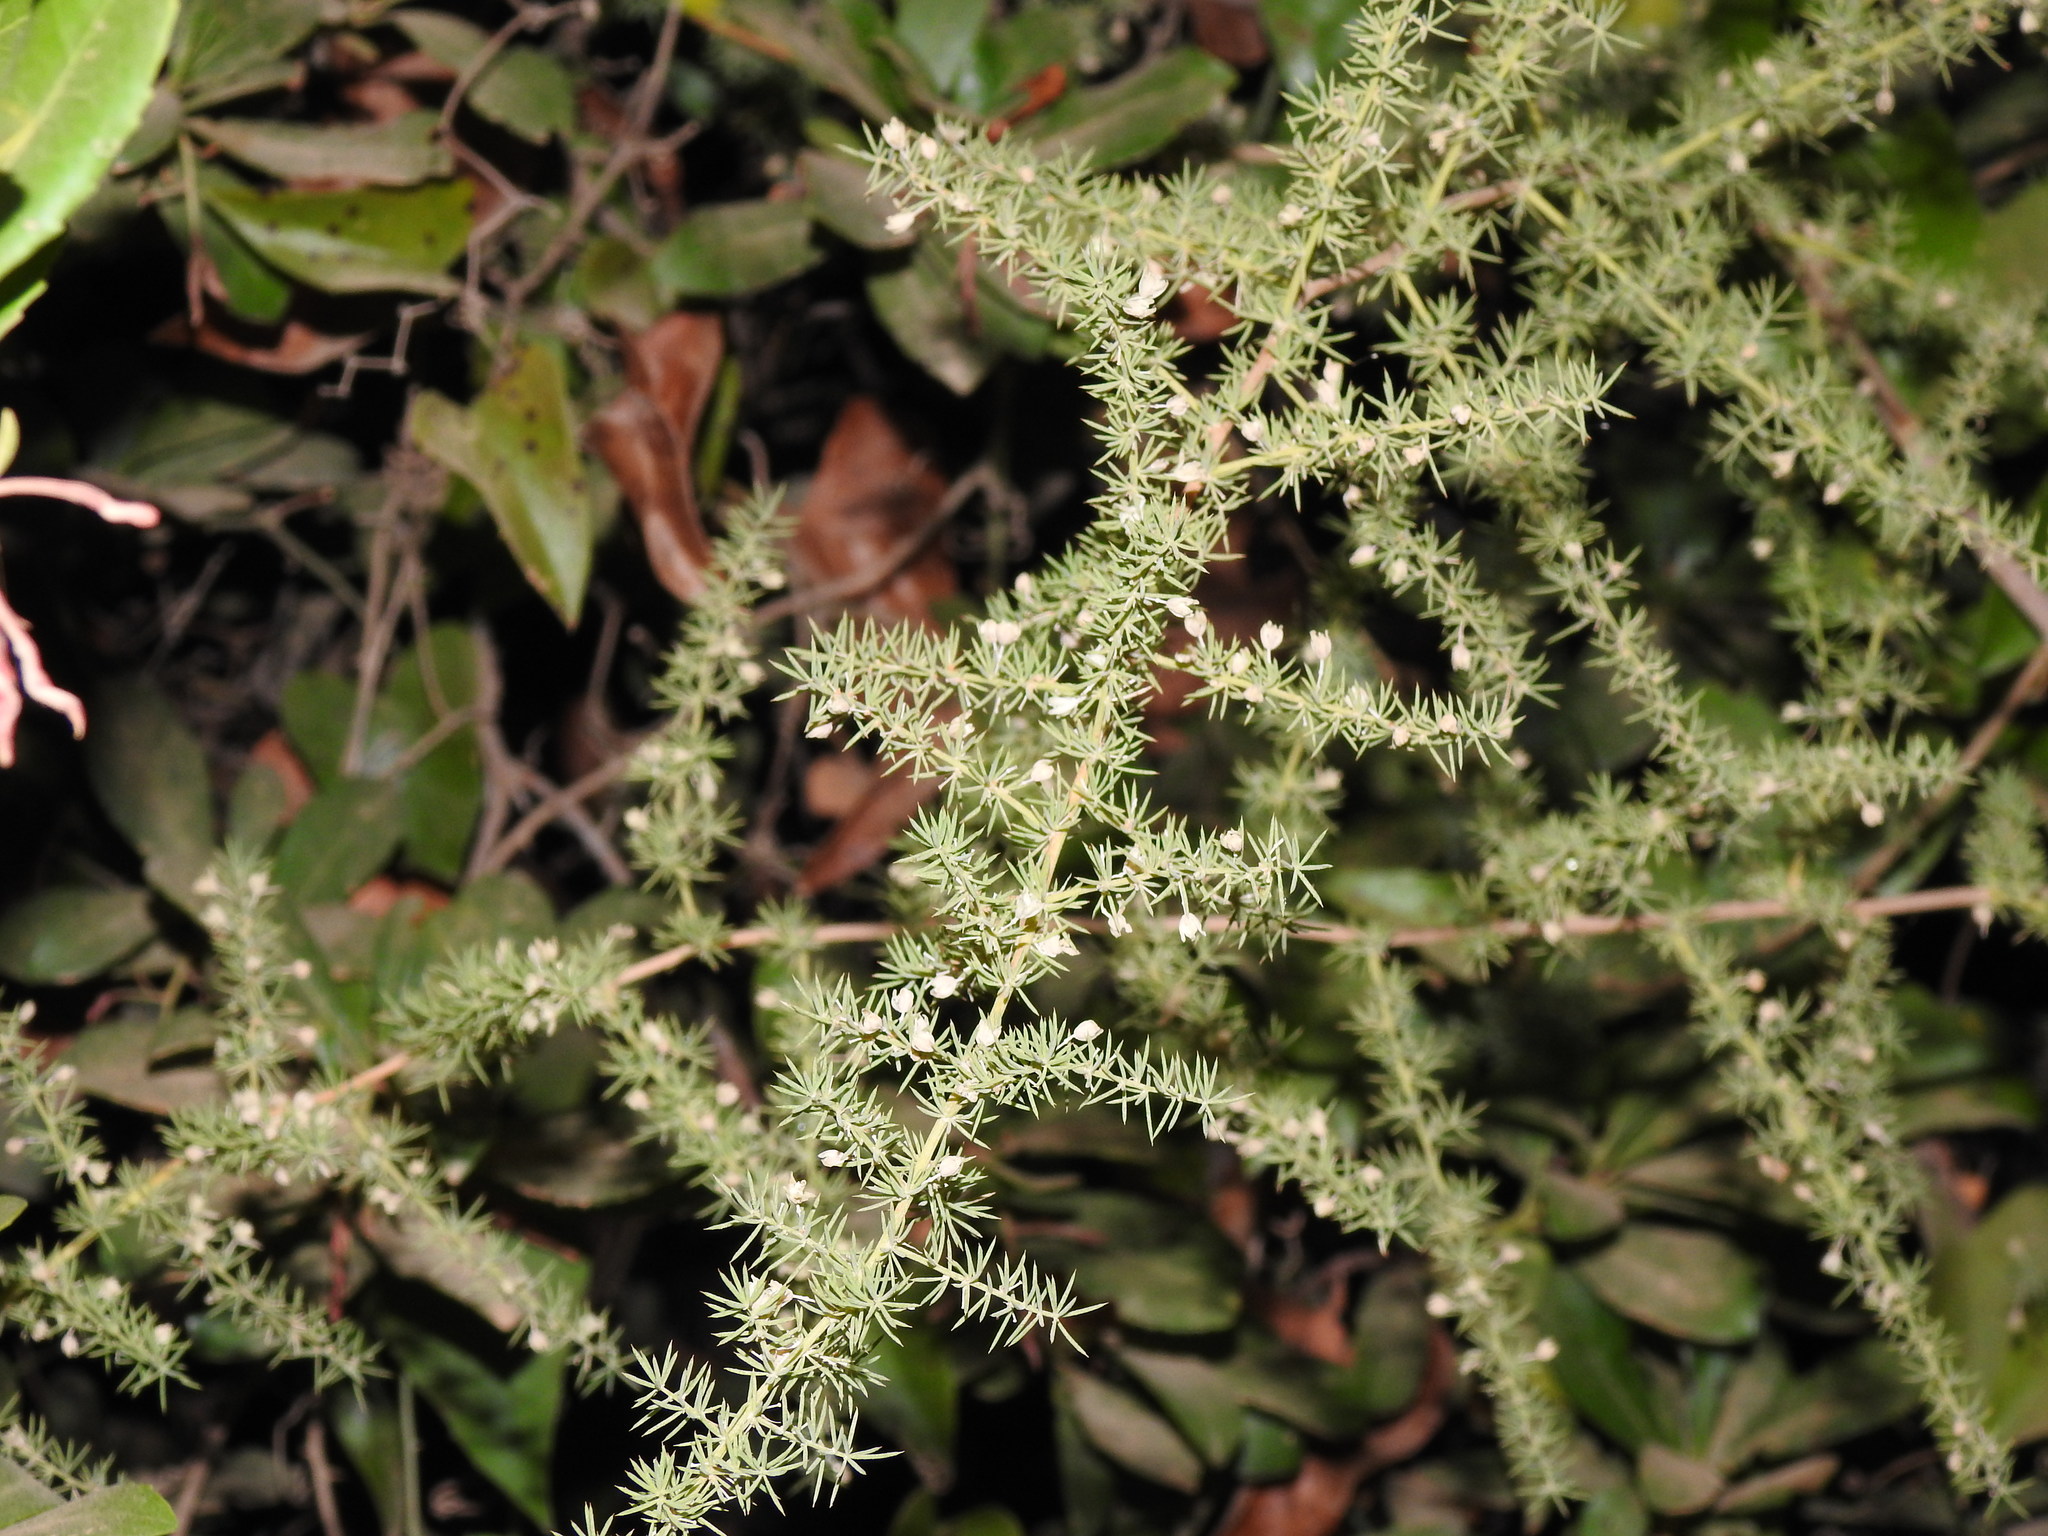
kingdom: Plantae
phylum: Tracheophyta
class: Liliopsida
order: Asparagales
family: Asparagaceae
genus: Asparagus
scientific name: Asparagus acutifolius
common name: Wild asparagus
